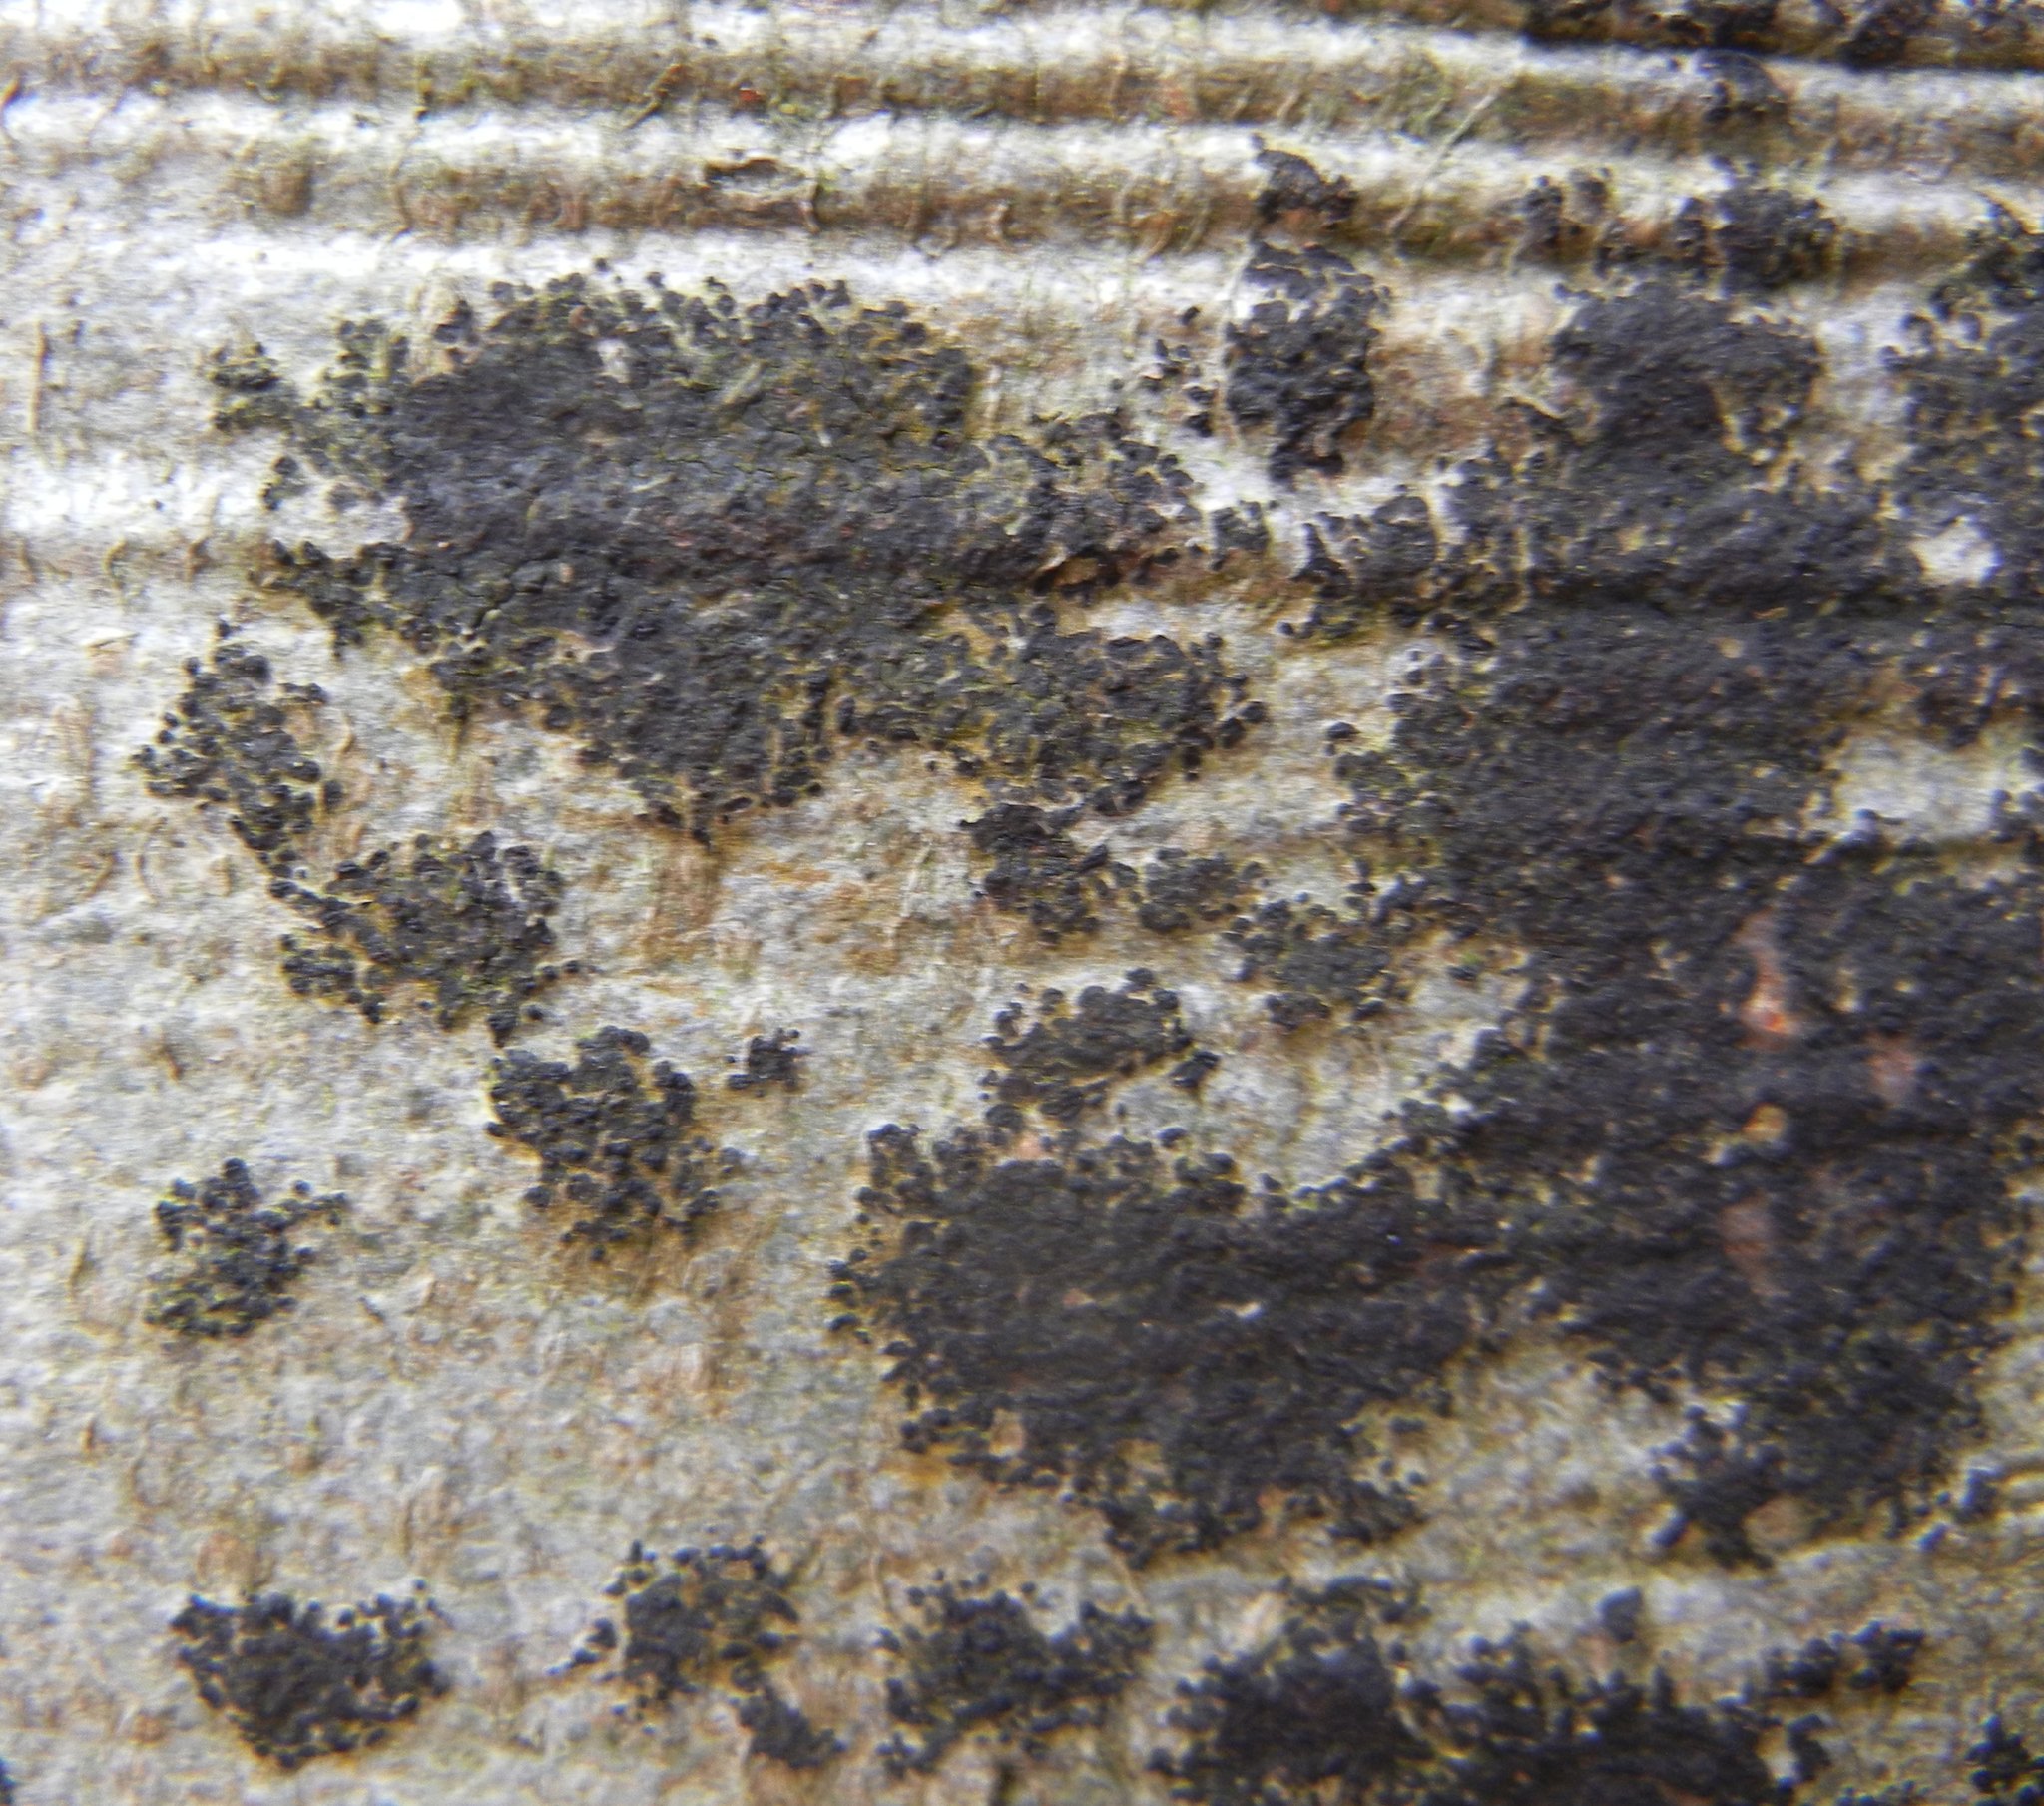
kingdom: Fungi
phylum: Ascomycota
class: Leotiomycetes
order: Rhytismatales
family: Ascodichaenaceae
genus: Ascodichaena
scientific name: Ascodichaena rugosa
